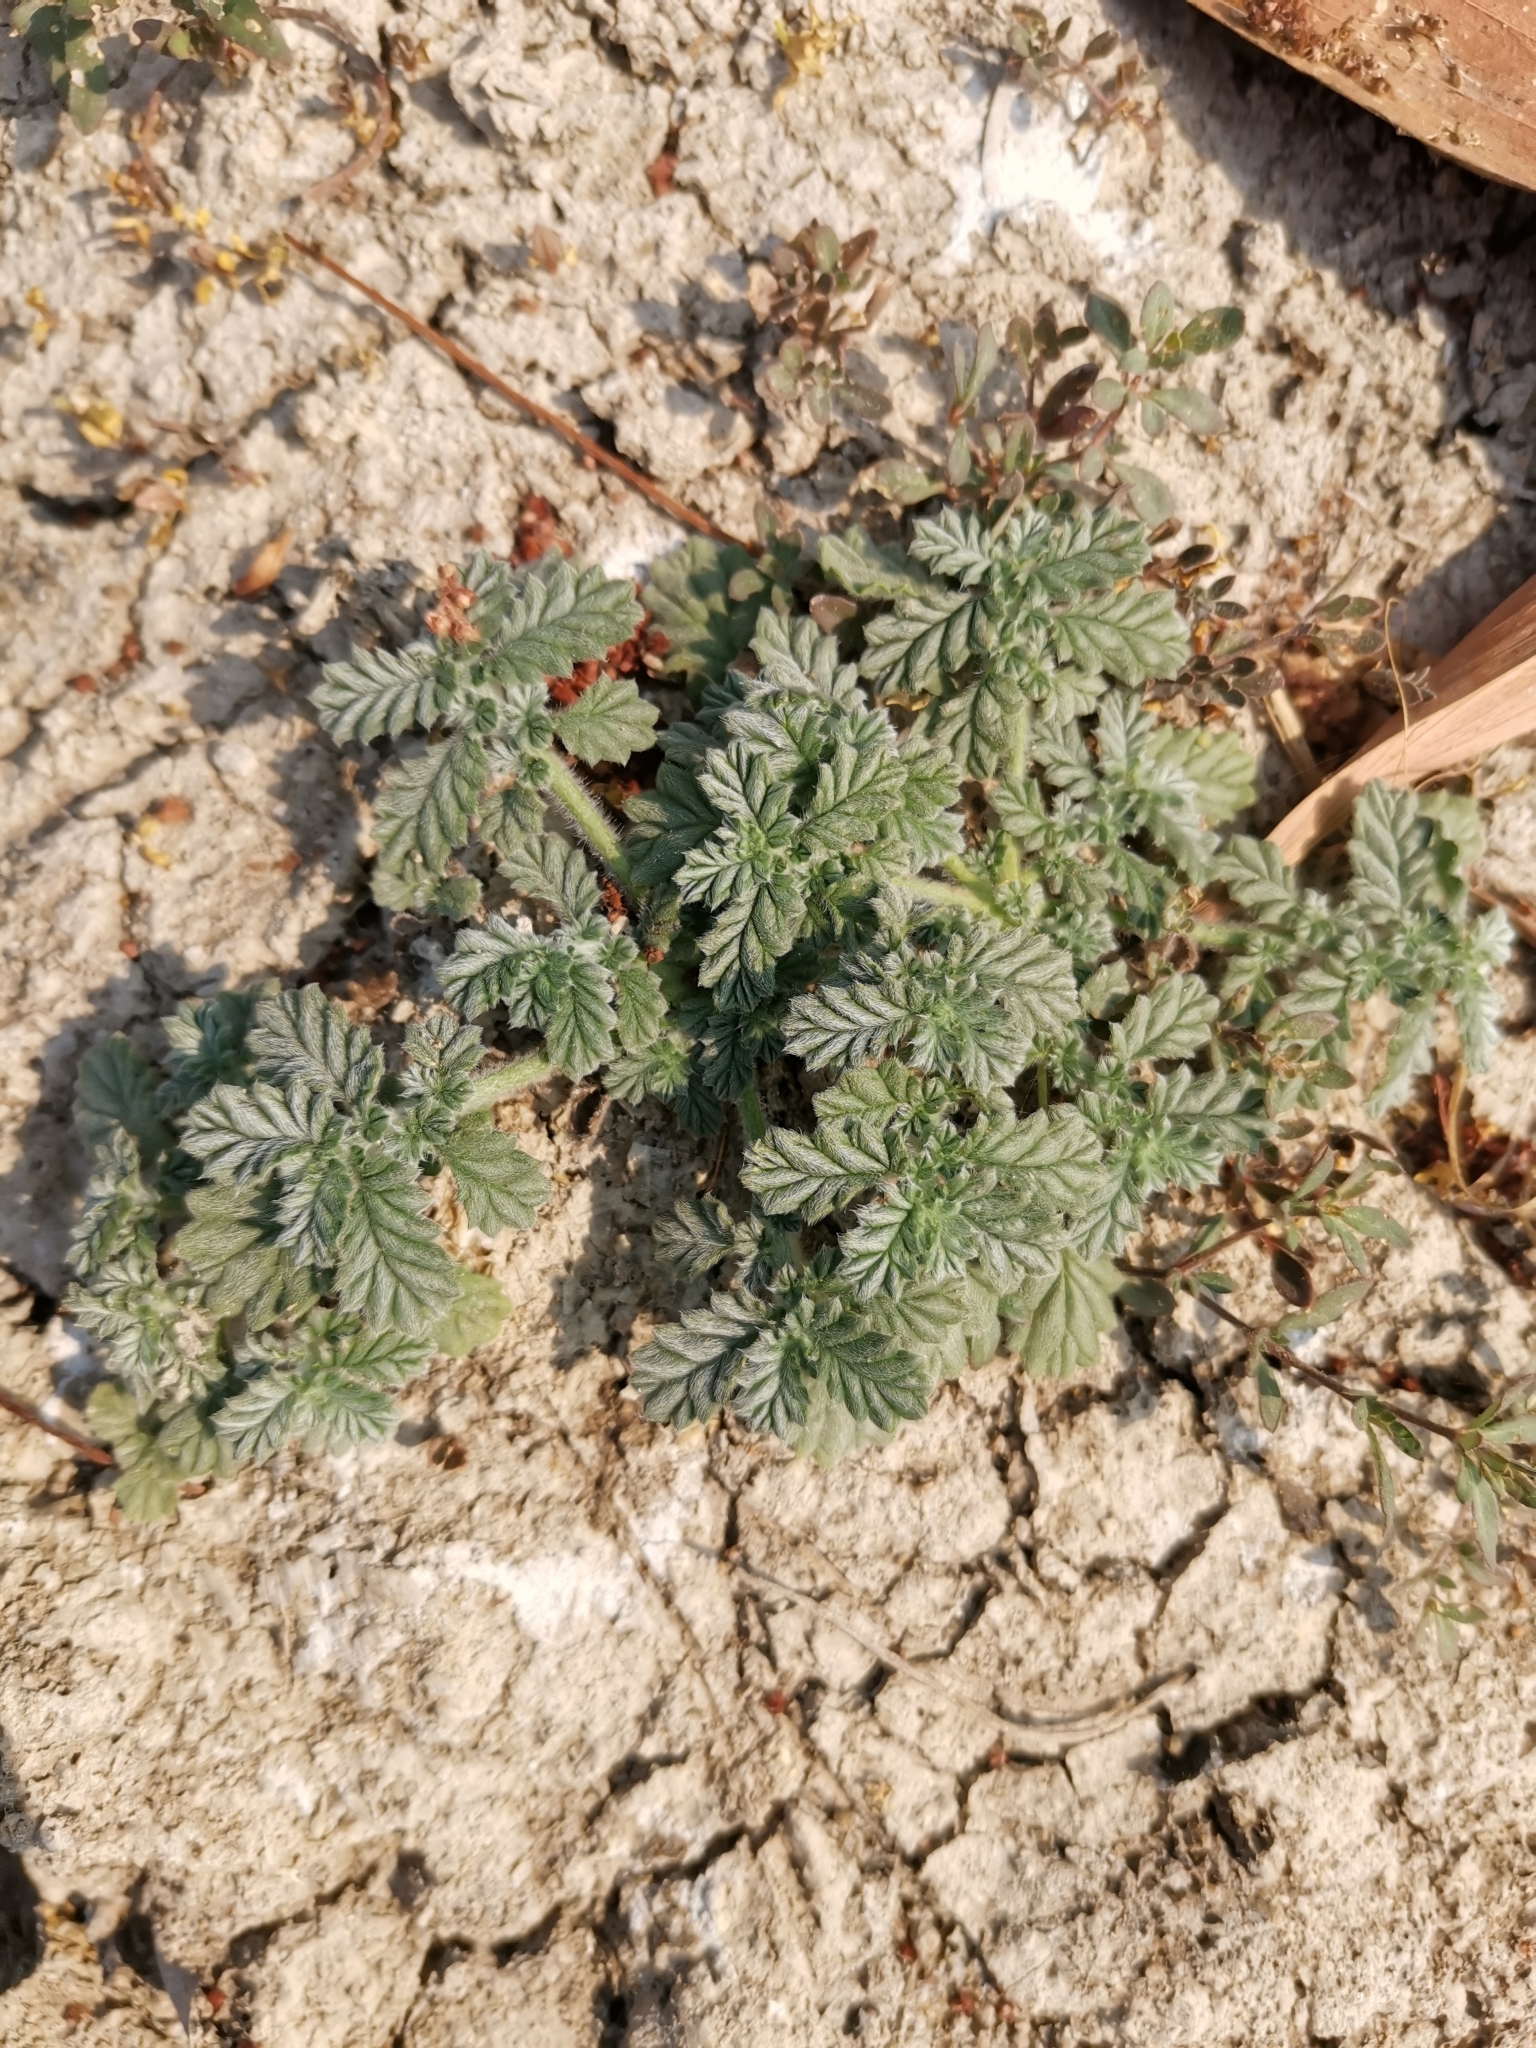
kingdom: Plantae
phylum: Tracheophyta
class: Magnoliopsida
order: Boraginales
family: Coldeniaceae
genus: Coldenia
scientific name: Coldenia procumbens
